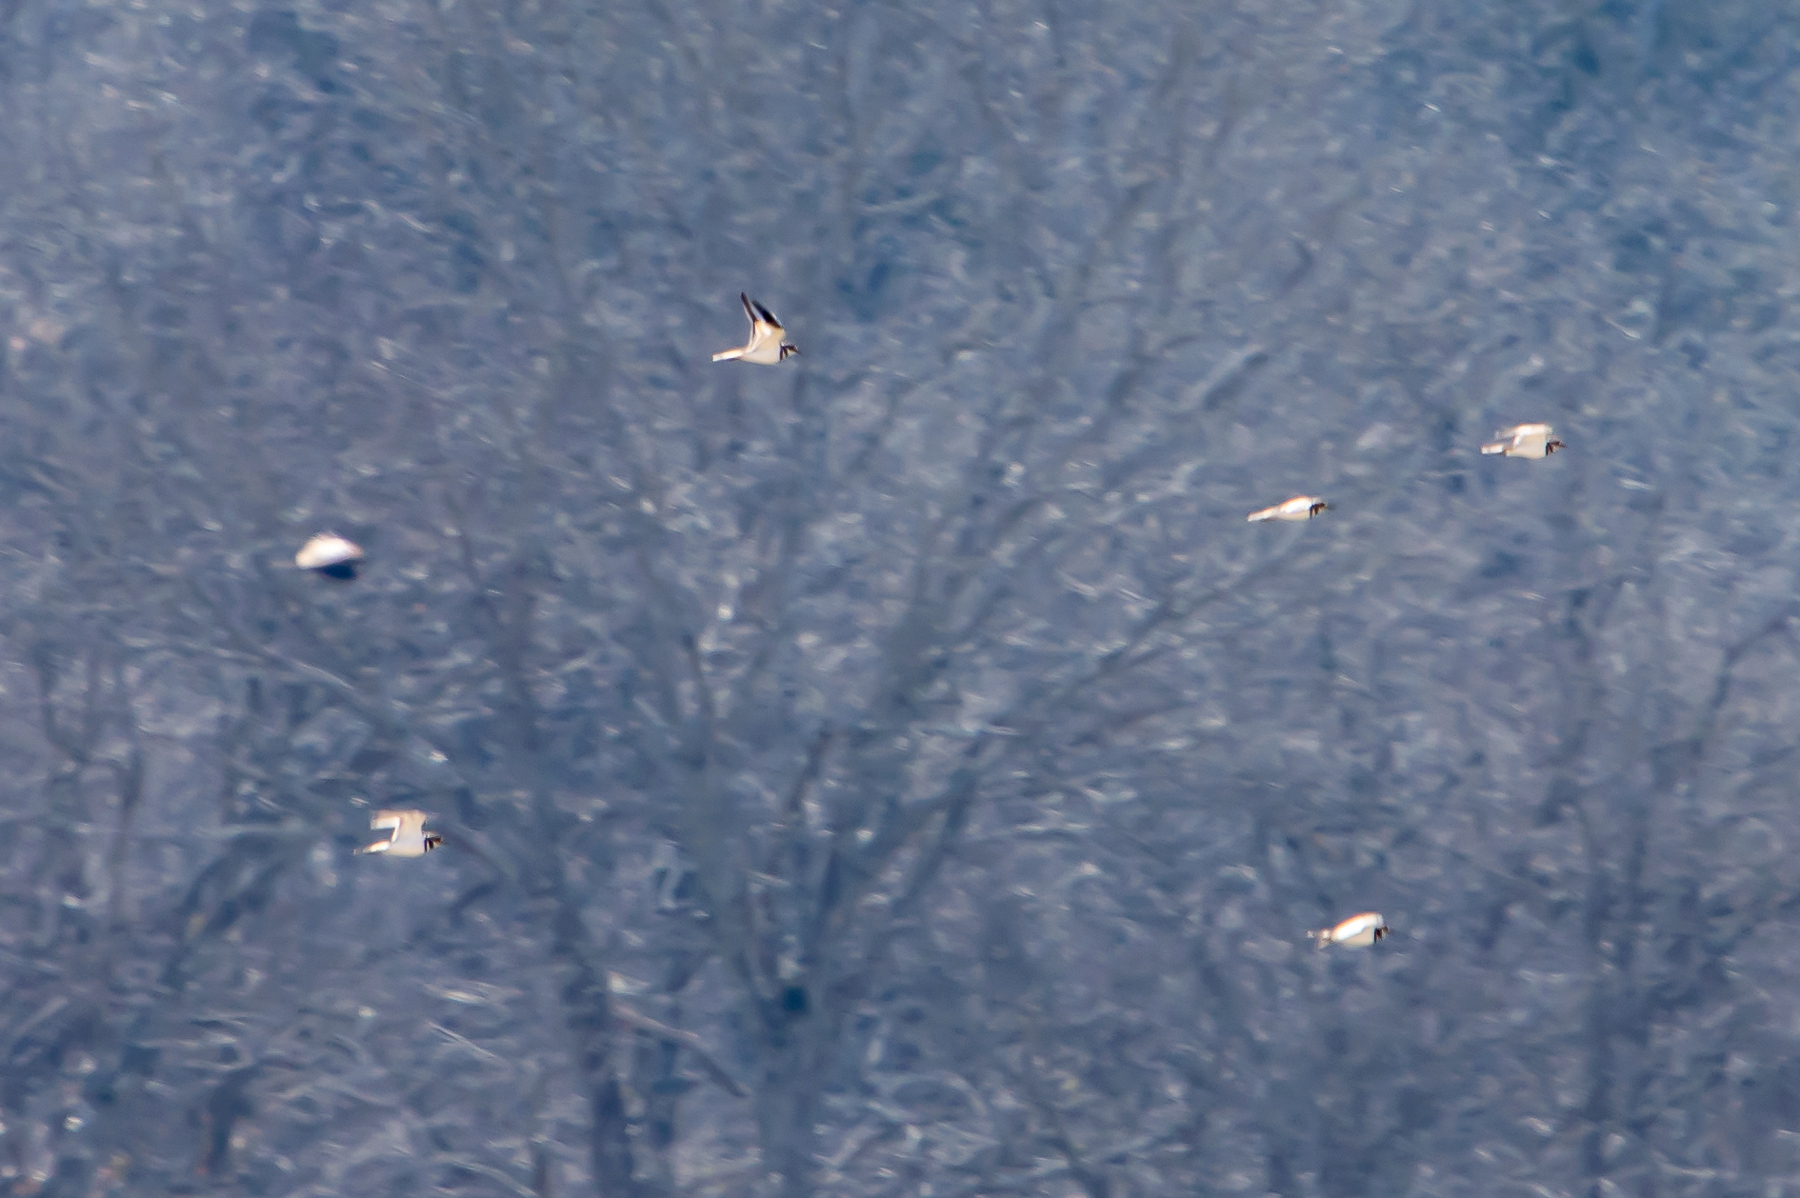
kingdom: Animalia
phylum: Chordata
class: Aves
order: Charadriiformes
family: Charadriidae
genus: Charadrius
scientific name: Charadrius vociferus
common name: Killdeer
